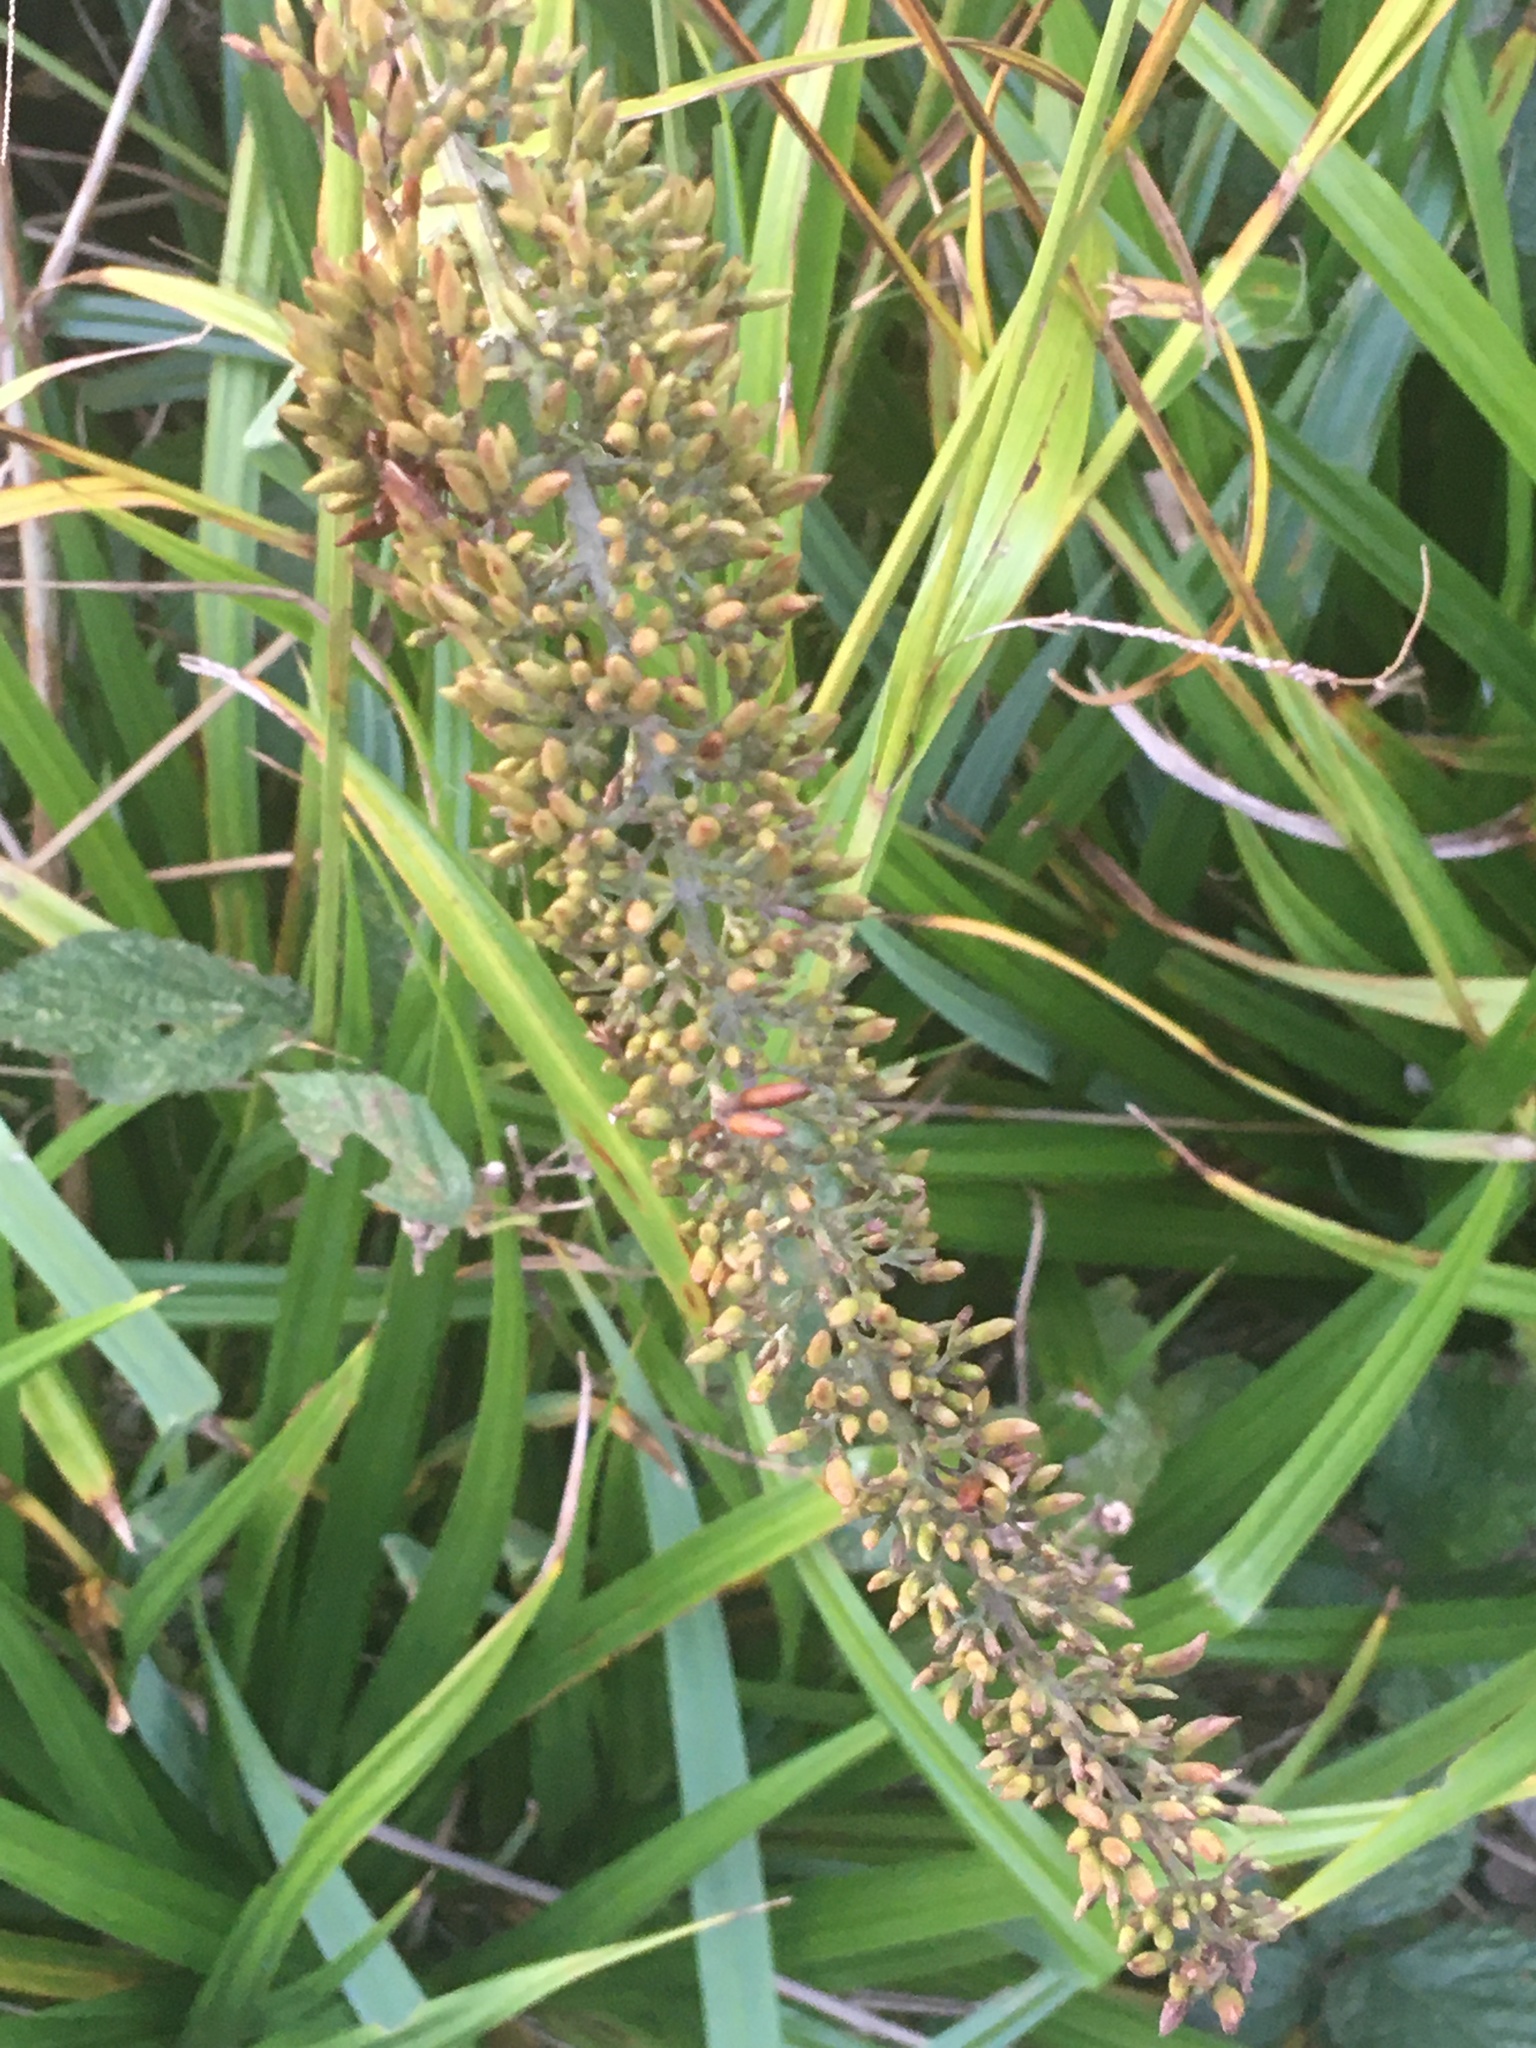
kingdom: Plantae
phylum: Tracheophyta
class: Magnoliopsida
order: Lamiales
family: Scrophulariaceae
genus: Buddleja
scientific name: Buddleja davidii
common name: Butterfly-bush
